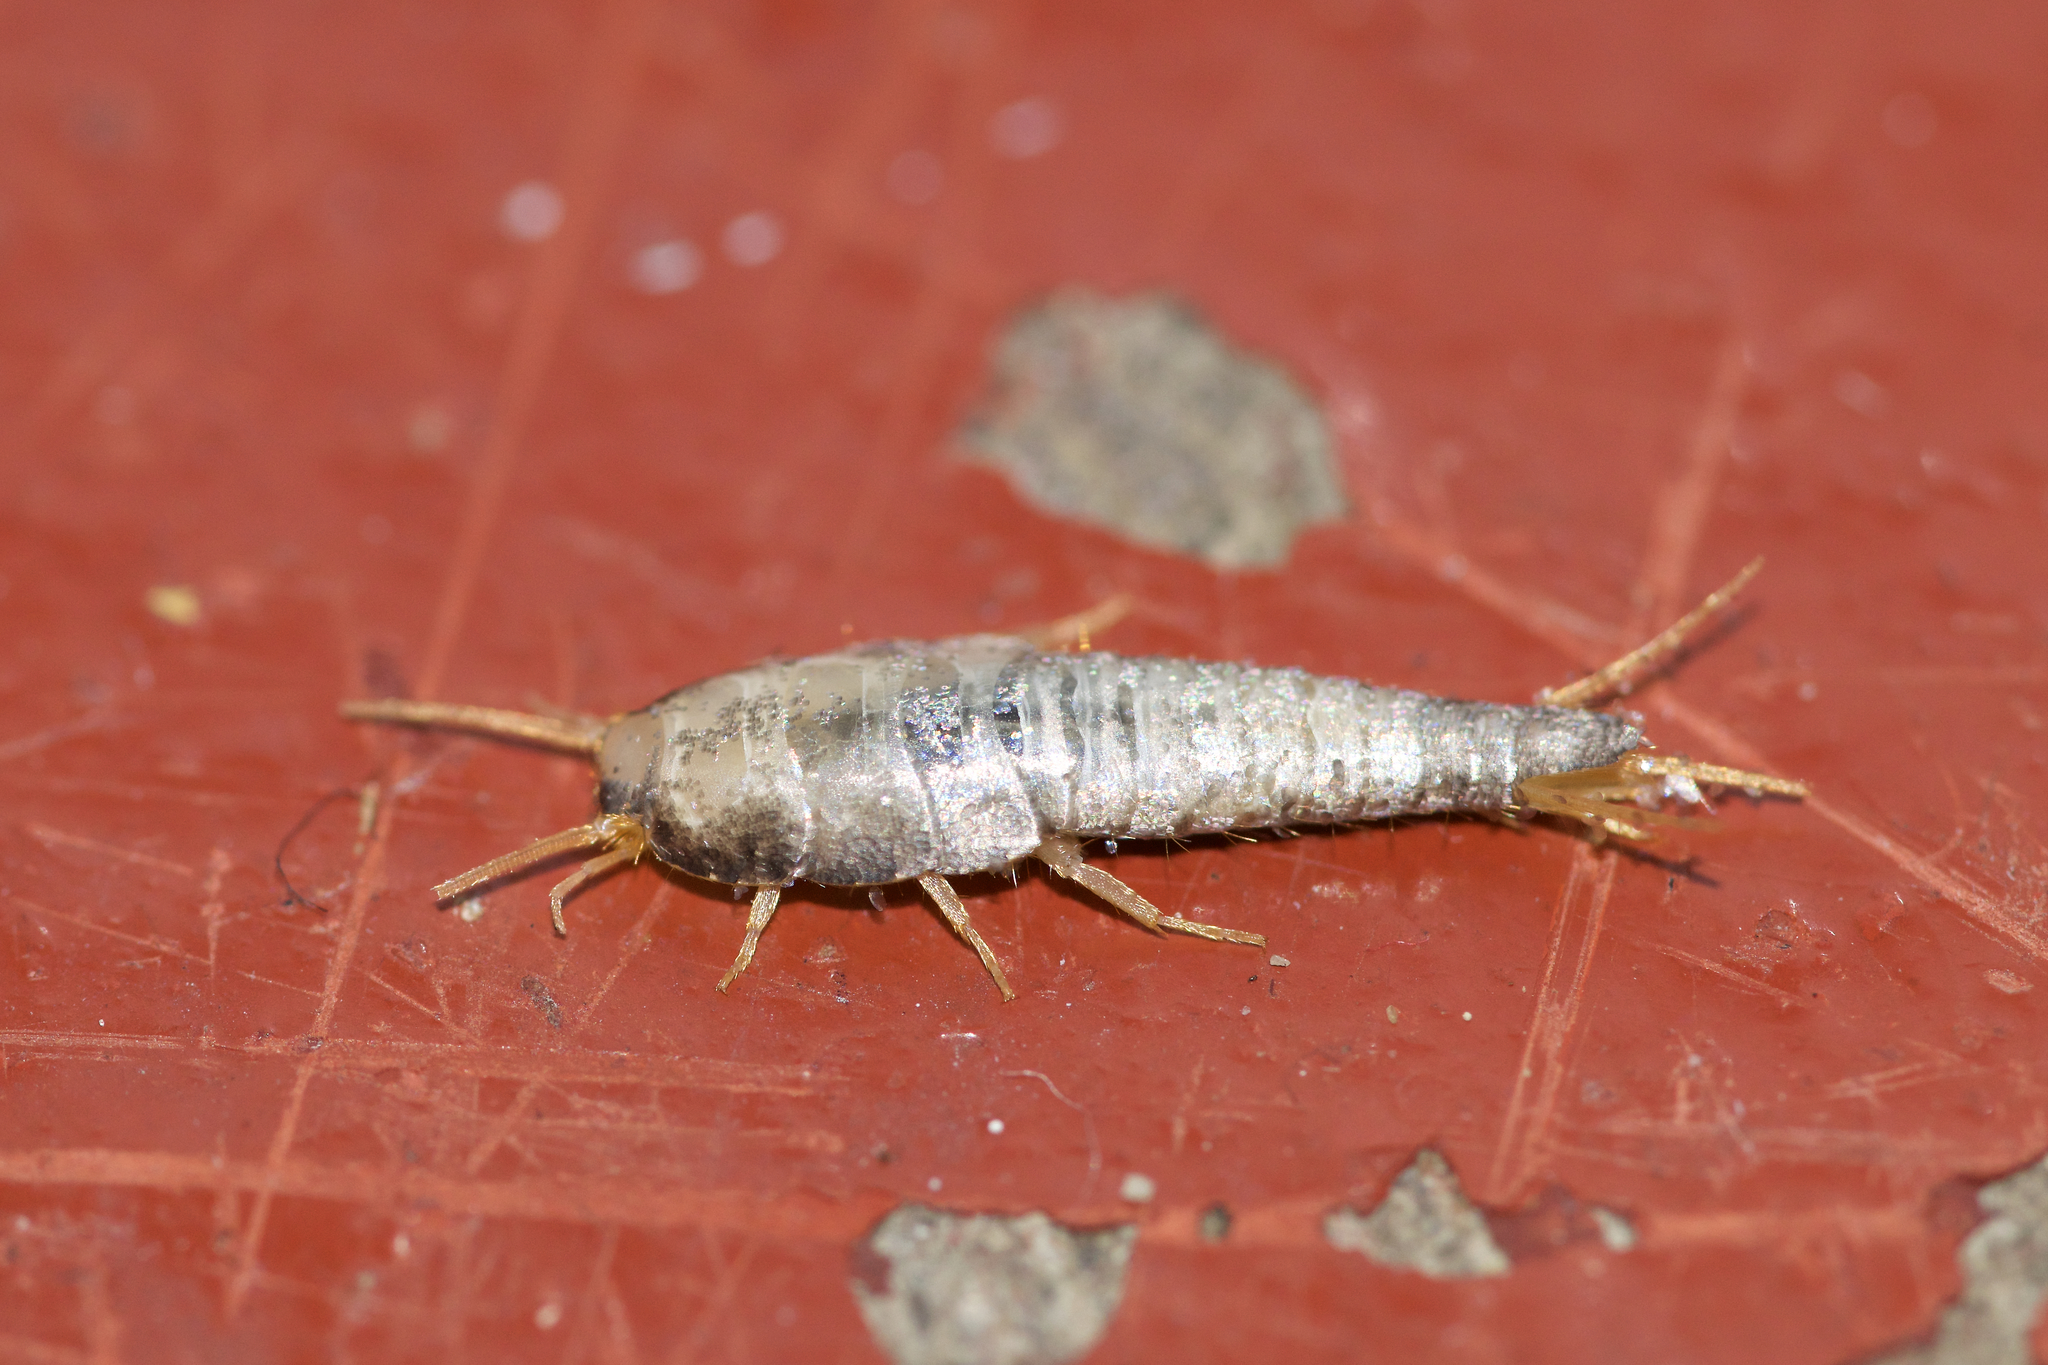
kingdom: Animalia
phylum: Arthropoda
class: Insecta
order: Zygentoma
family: Lepismatidae
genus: Lepisma
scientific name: Lepisma saccharinum
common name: Silverfish
